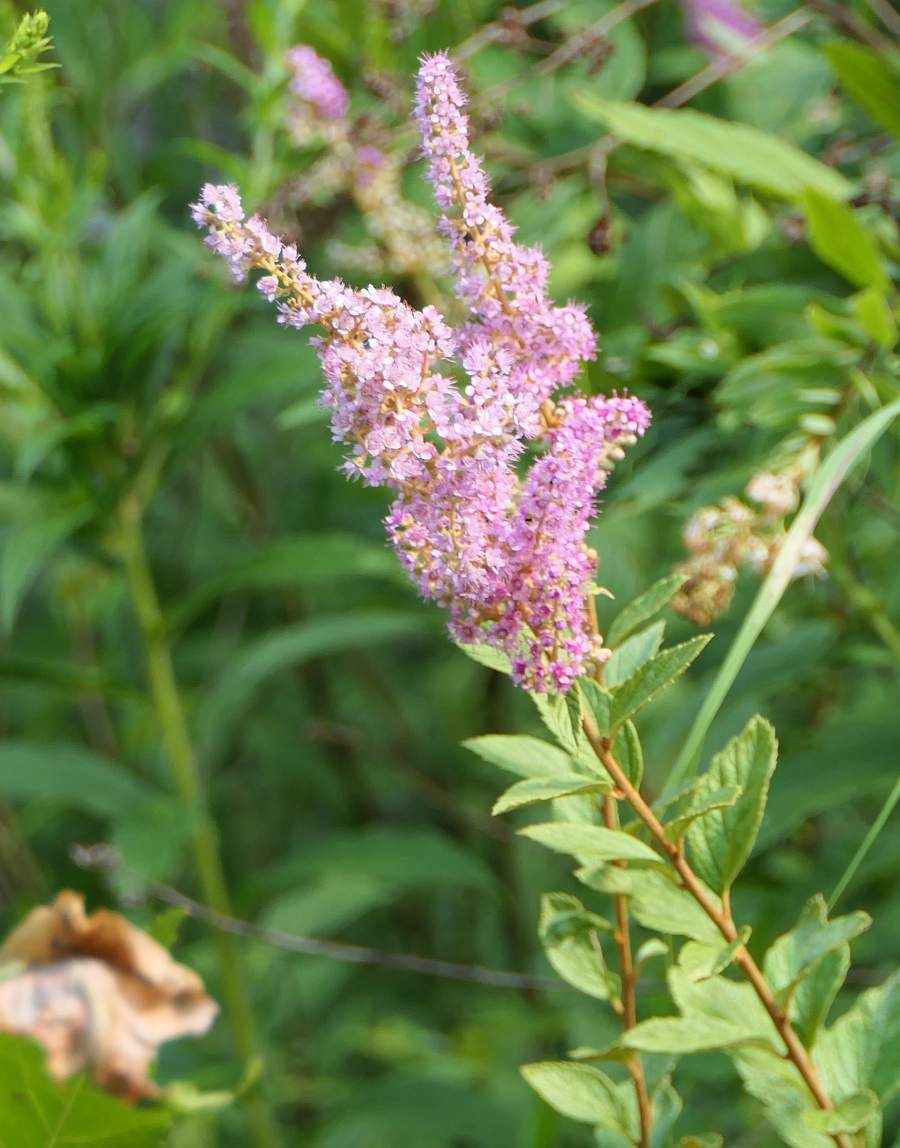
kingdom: Plantae
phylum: Tracheophyta
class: Magnoliopsida
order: Rosales
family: Rosaceae
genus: Spiraea
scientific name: Spiraea tomentosa
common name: Hardhack
